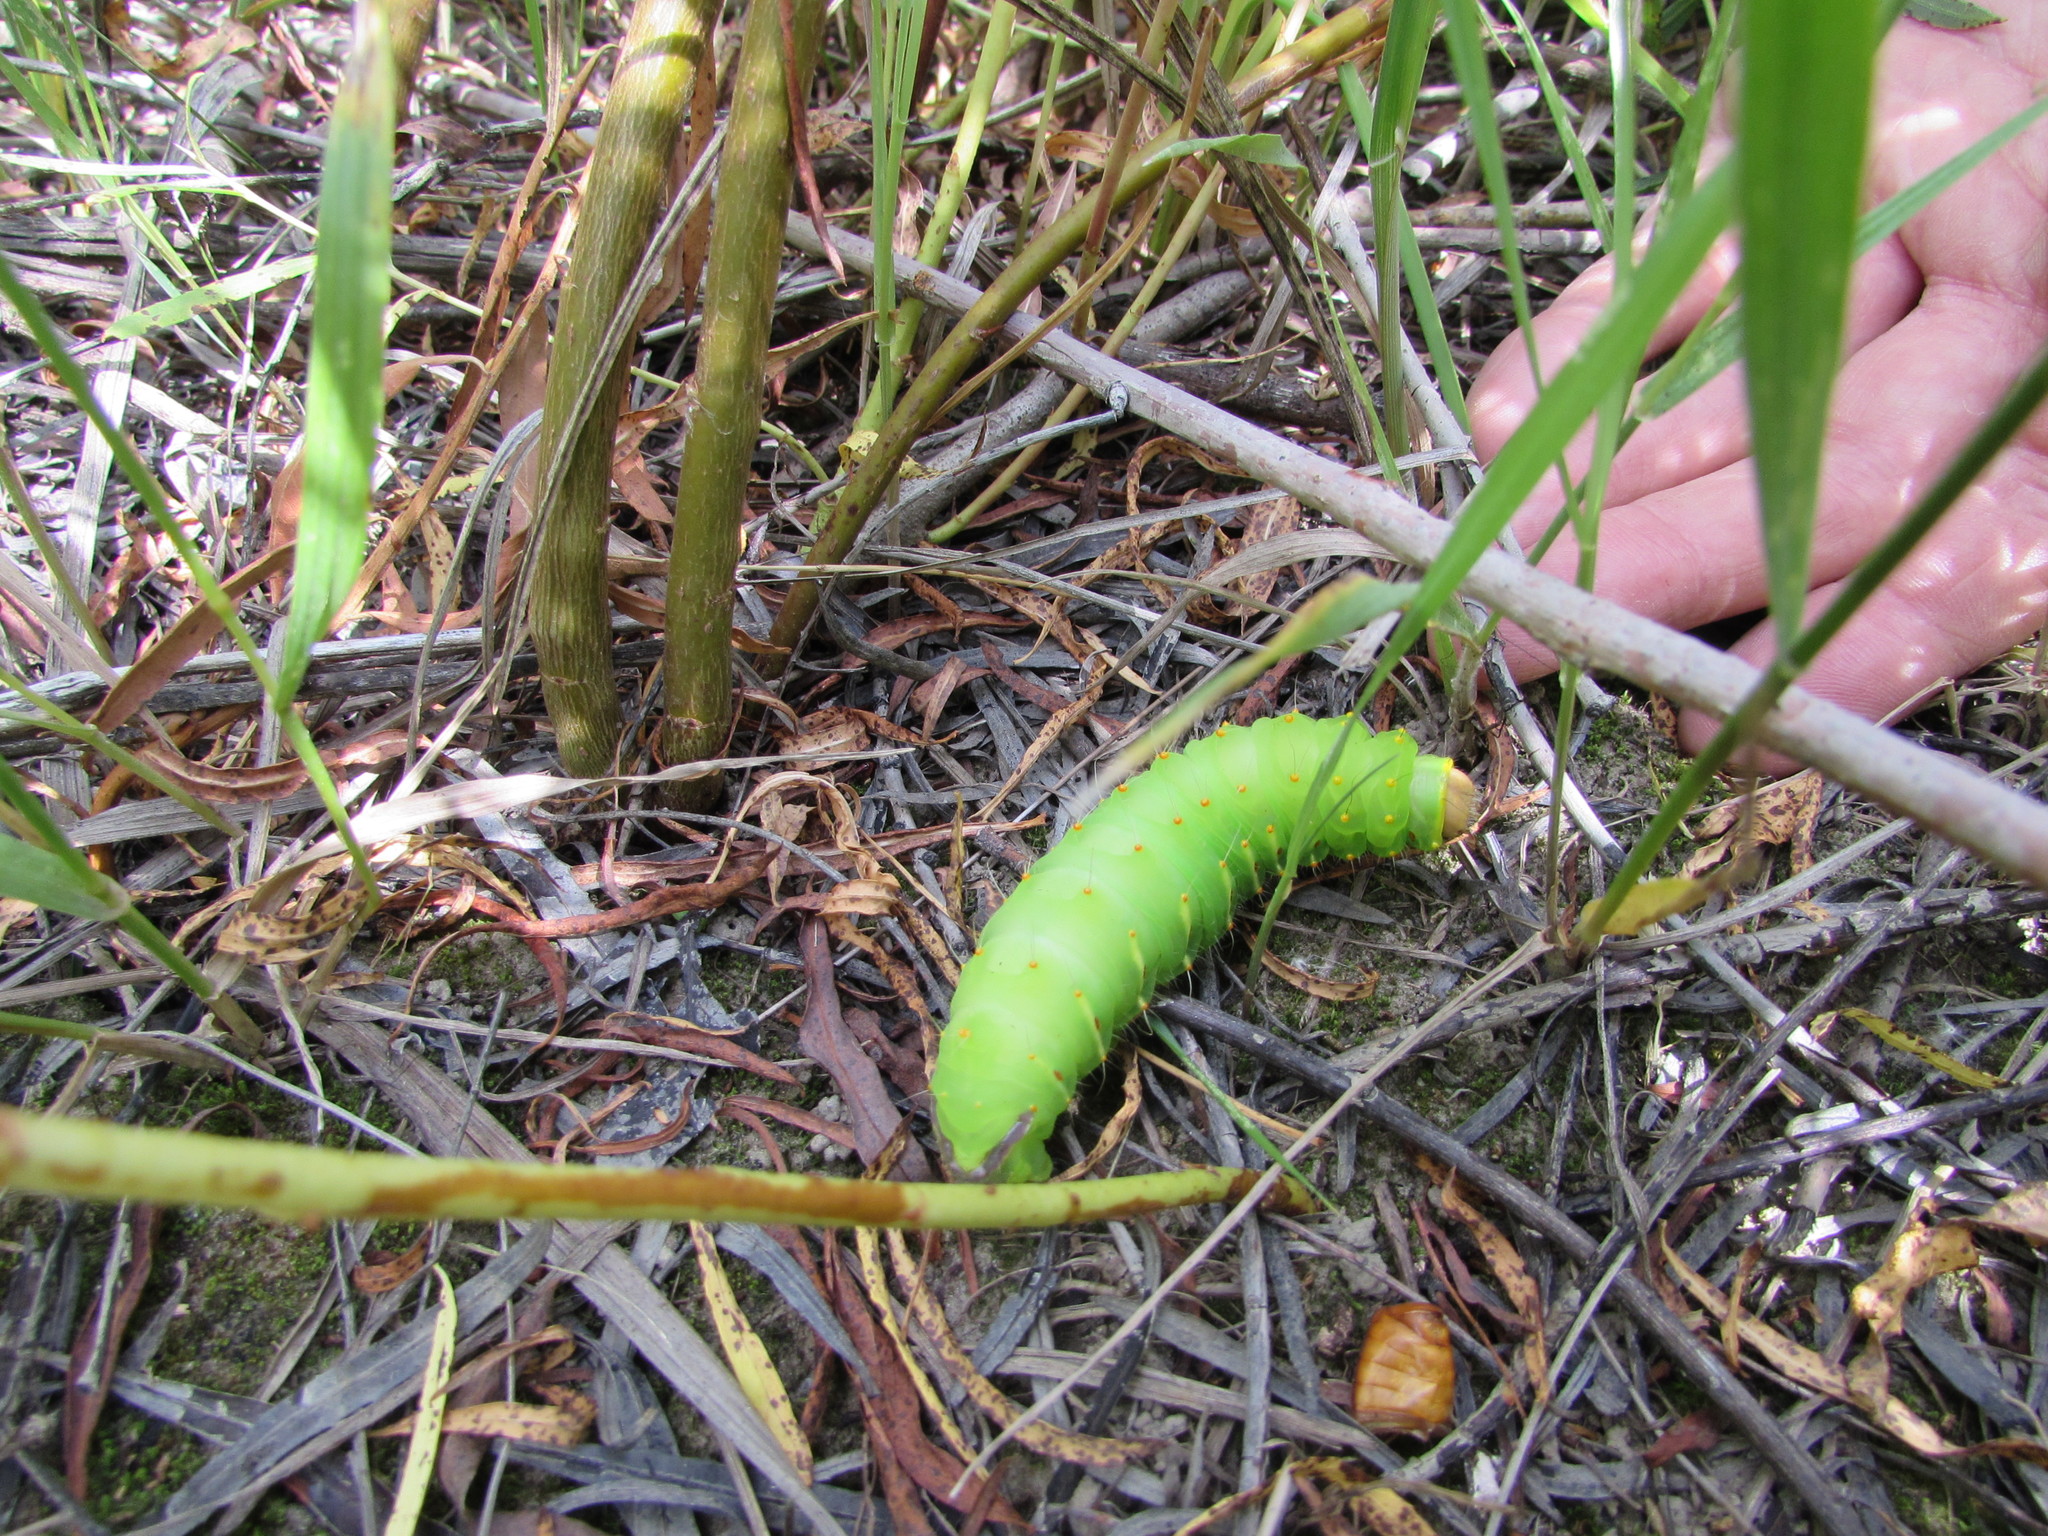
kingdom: Animalia
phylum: Arthropoda
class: Insecta
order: Lepidoptera
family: Saturniidae
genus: Antheraea
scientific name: Antheraea polyphemus
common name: Polyphemus moth
